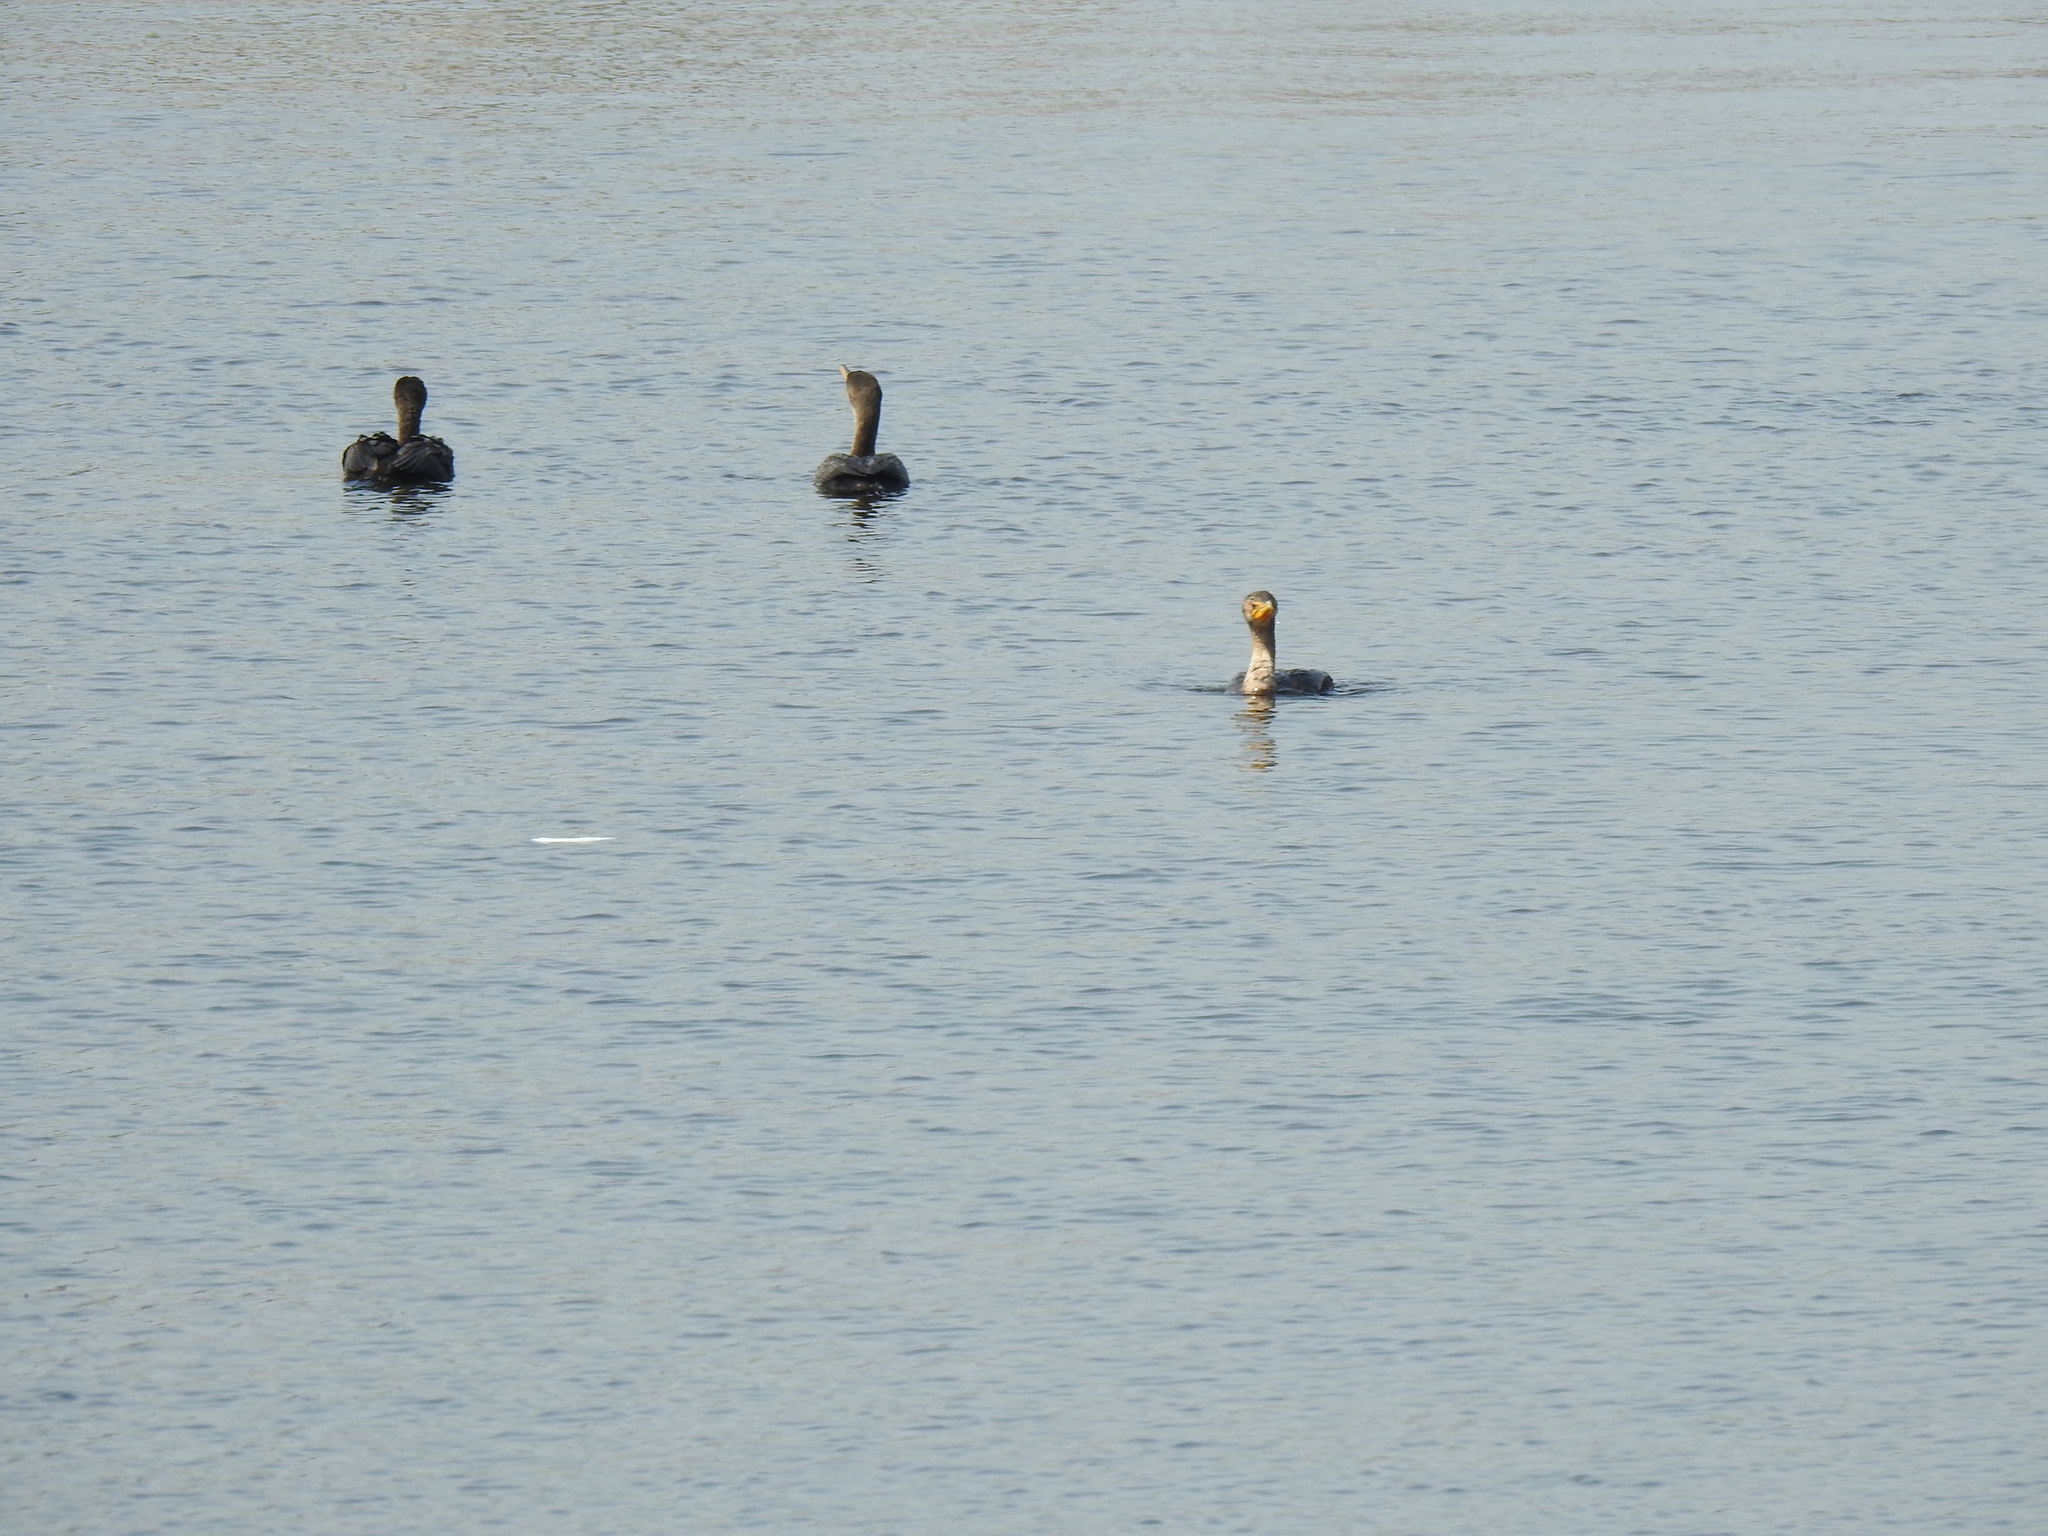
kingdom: Animalia
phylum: Chordata
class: Aves
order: Suliformes
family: Phalacrocoracidae
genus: Phalacrocorax
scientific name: Phalacrocorax auritus
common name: Double-crested cormorant
